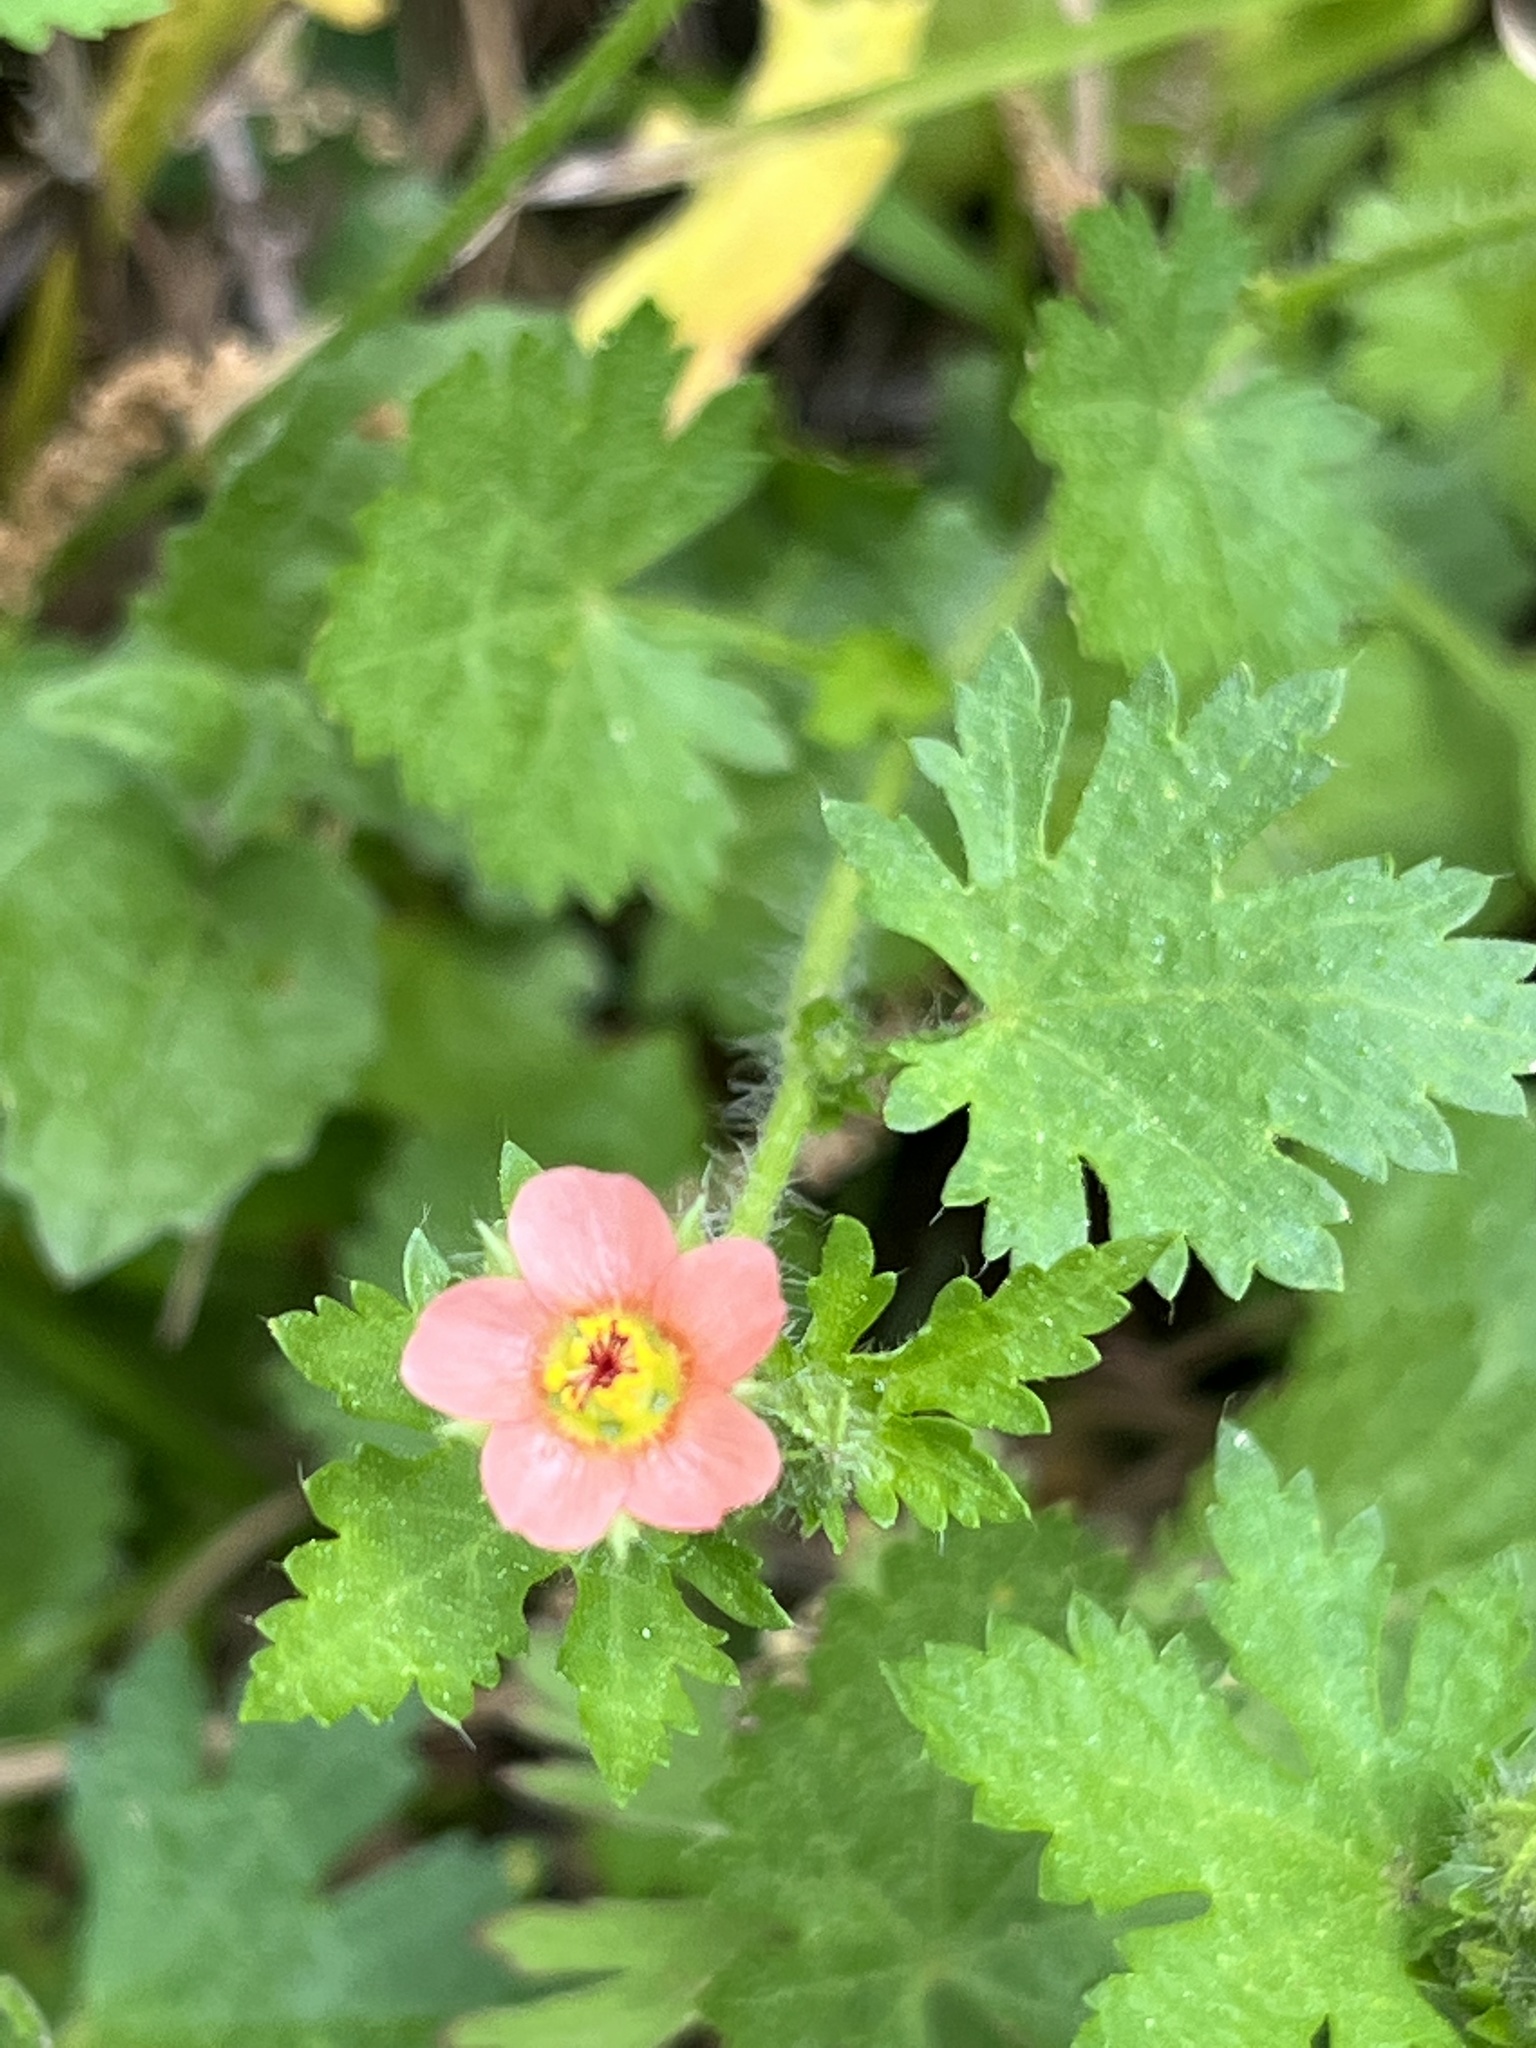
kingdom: Plantae
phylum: Tracheophyta
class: Magnoliopsida
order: Malvales
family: Malvaceae
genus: Modiola
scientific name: Modiola caroliniana
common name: Carolina bristlemallow
